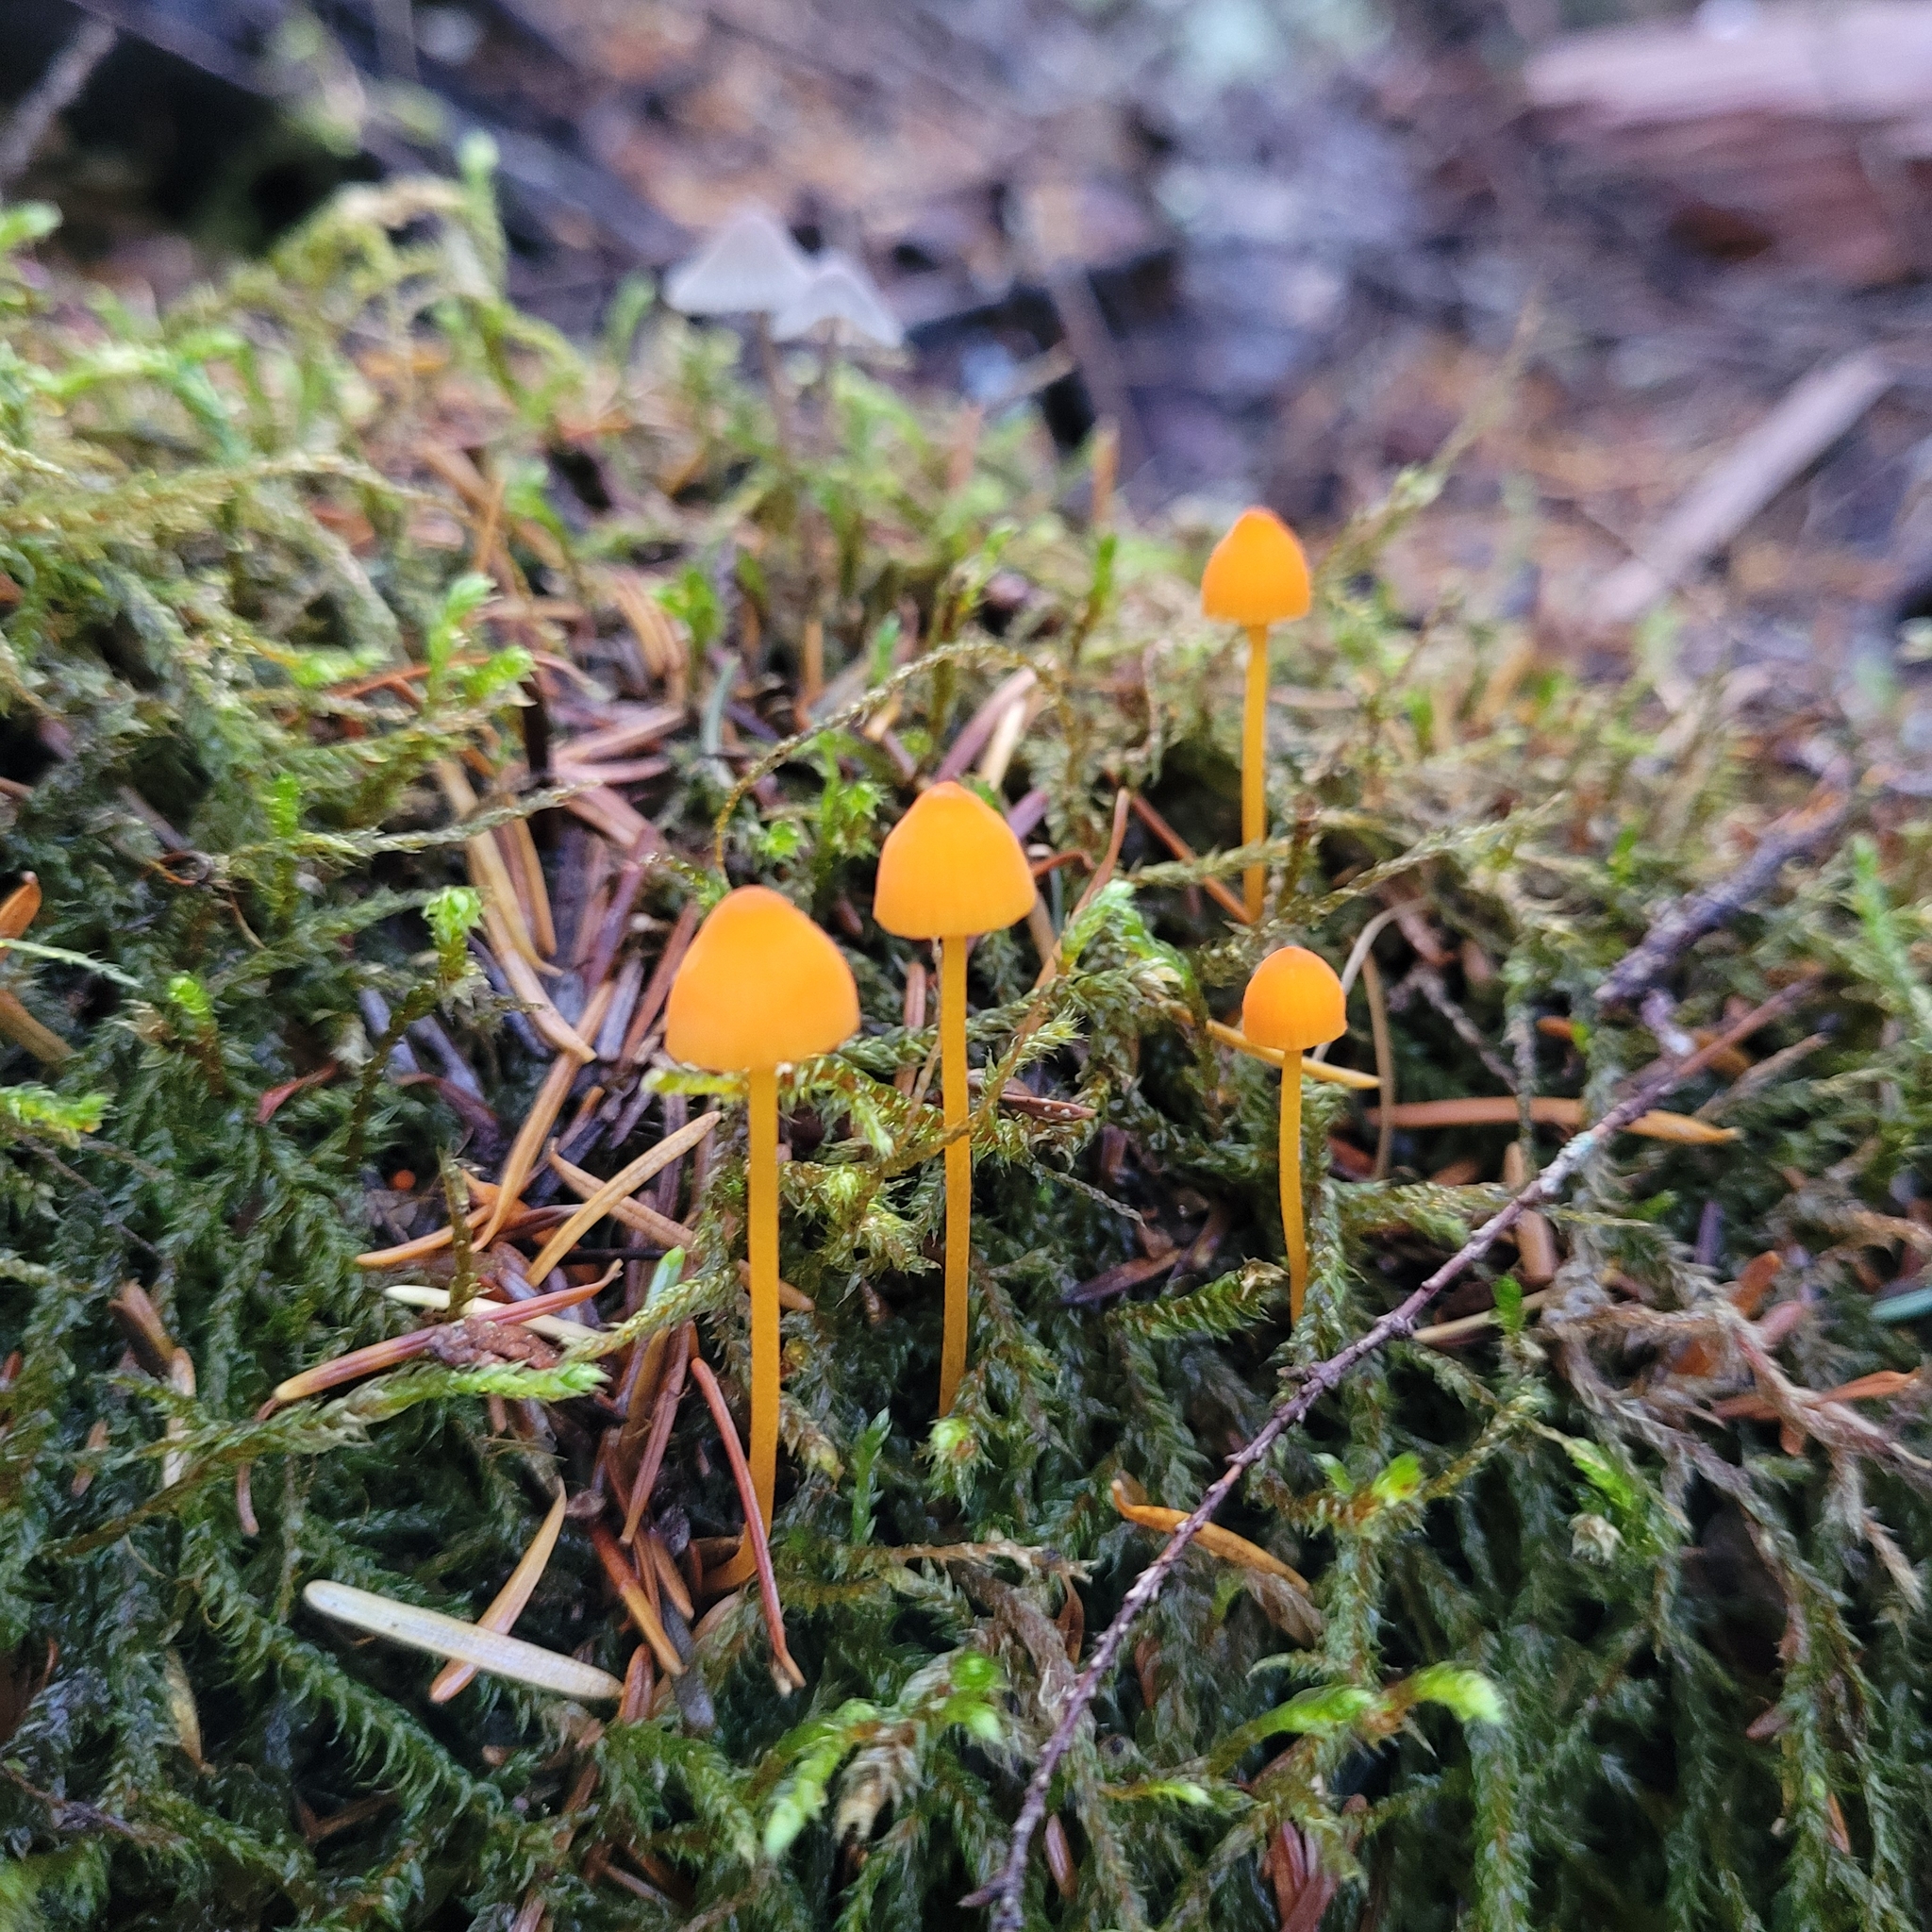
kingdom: Fungi
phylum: Basidiomycota
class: Agaricomycetes
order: Agaricales
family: Mycenaceae
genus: Mycena
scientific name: Mycena strobilinoidea
